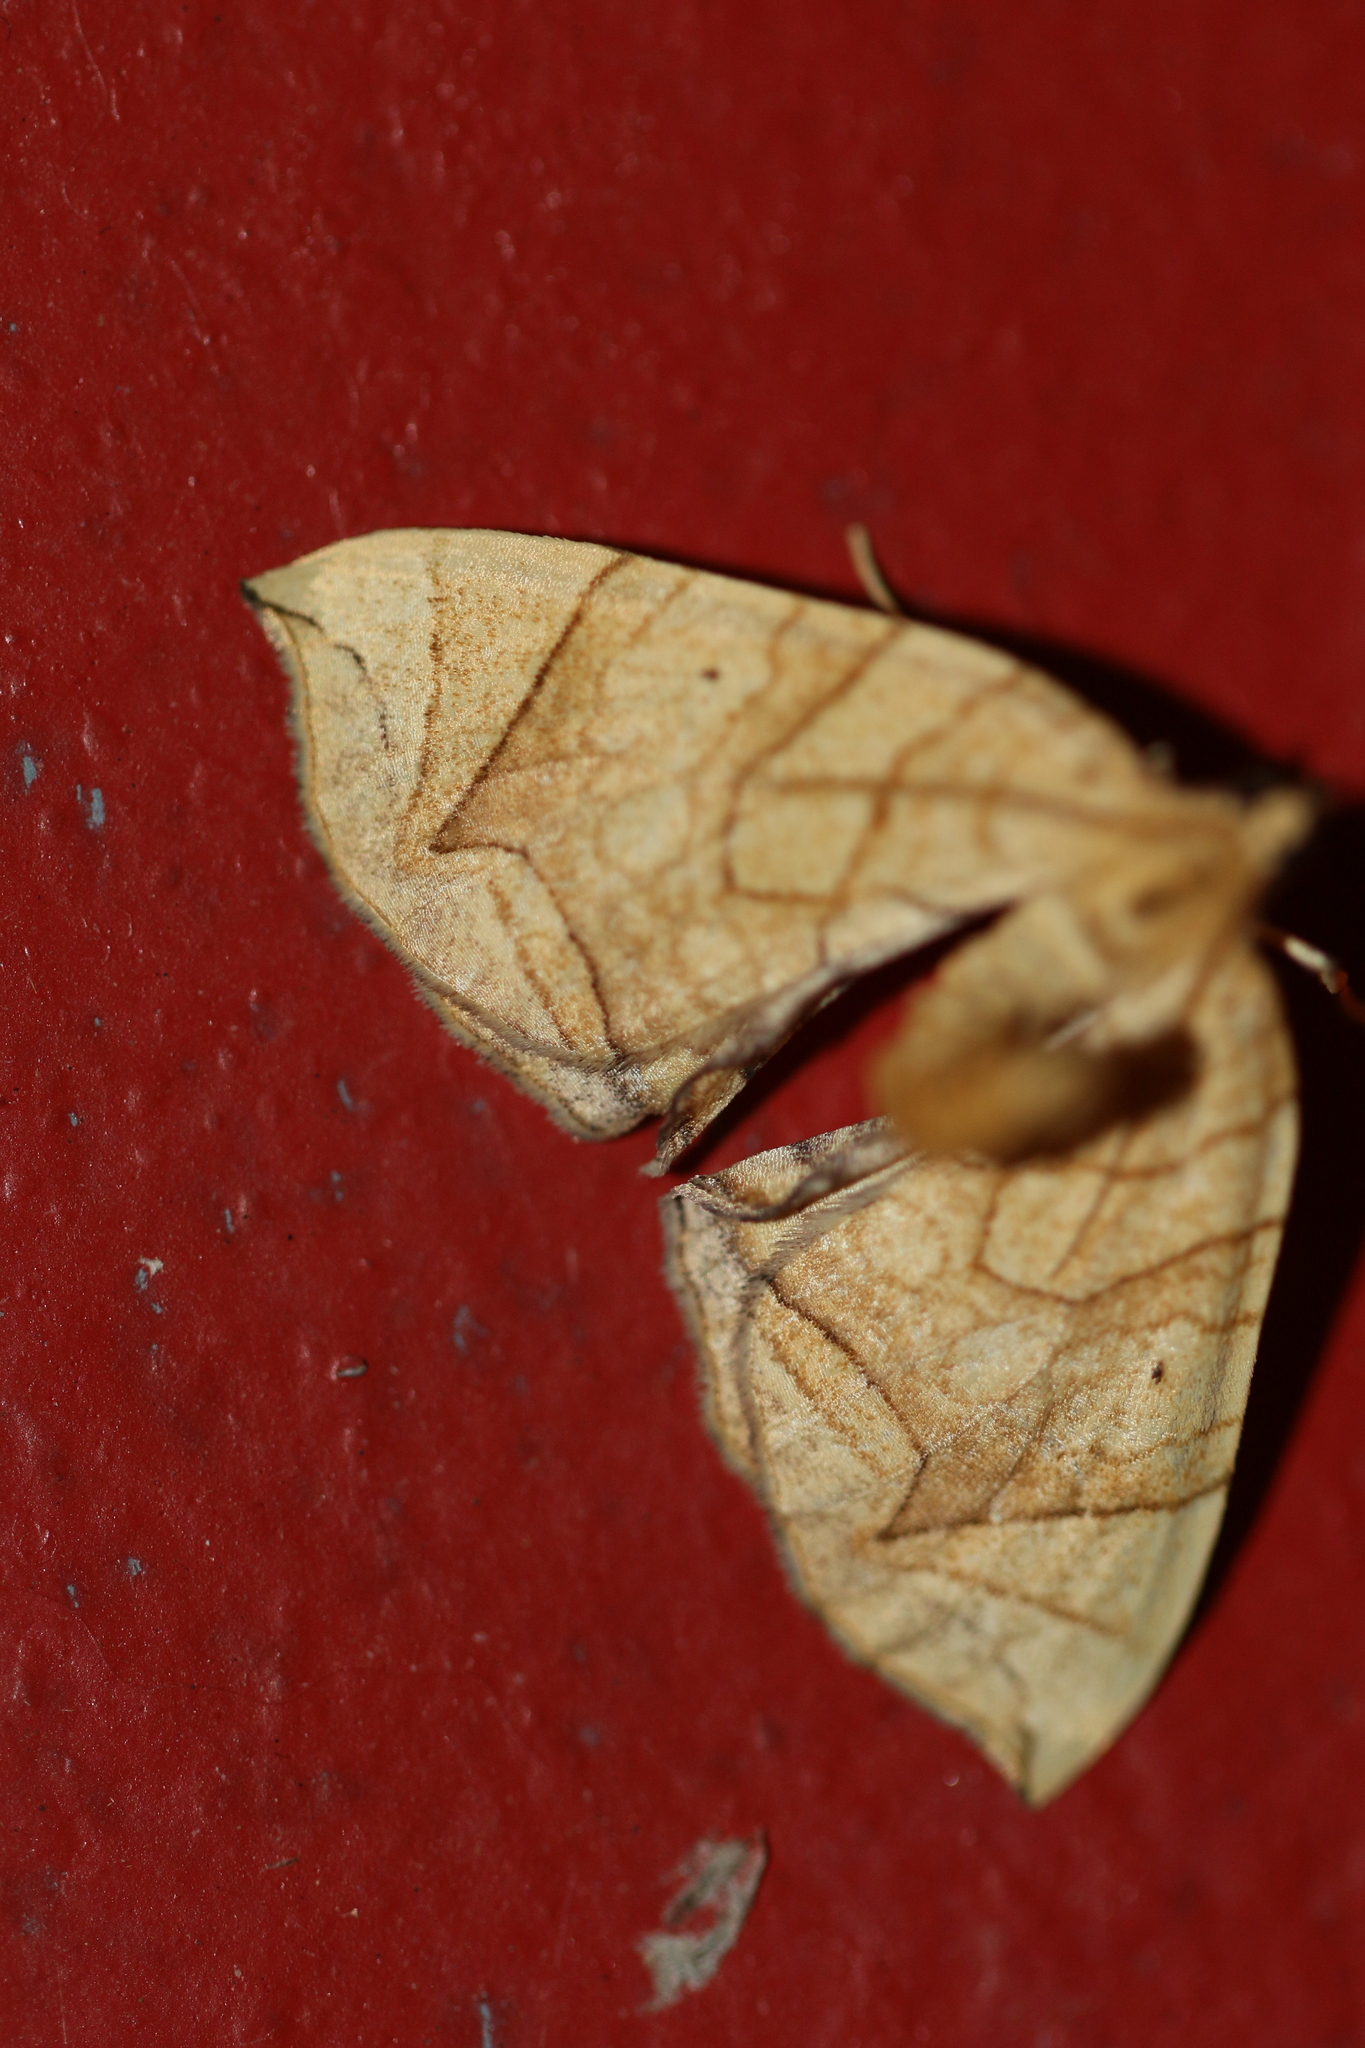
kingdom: Animalia
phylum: Arthropoda
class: Insecta
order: Lepidoptera
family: Geometridae
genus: Eulithis
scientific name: Eulithis
